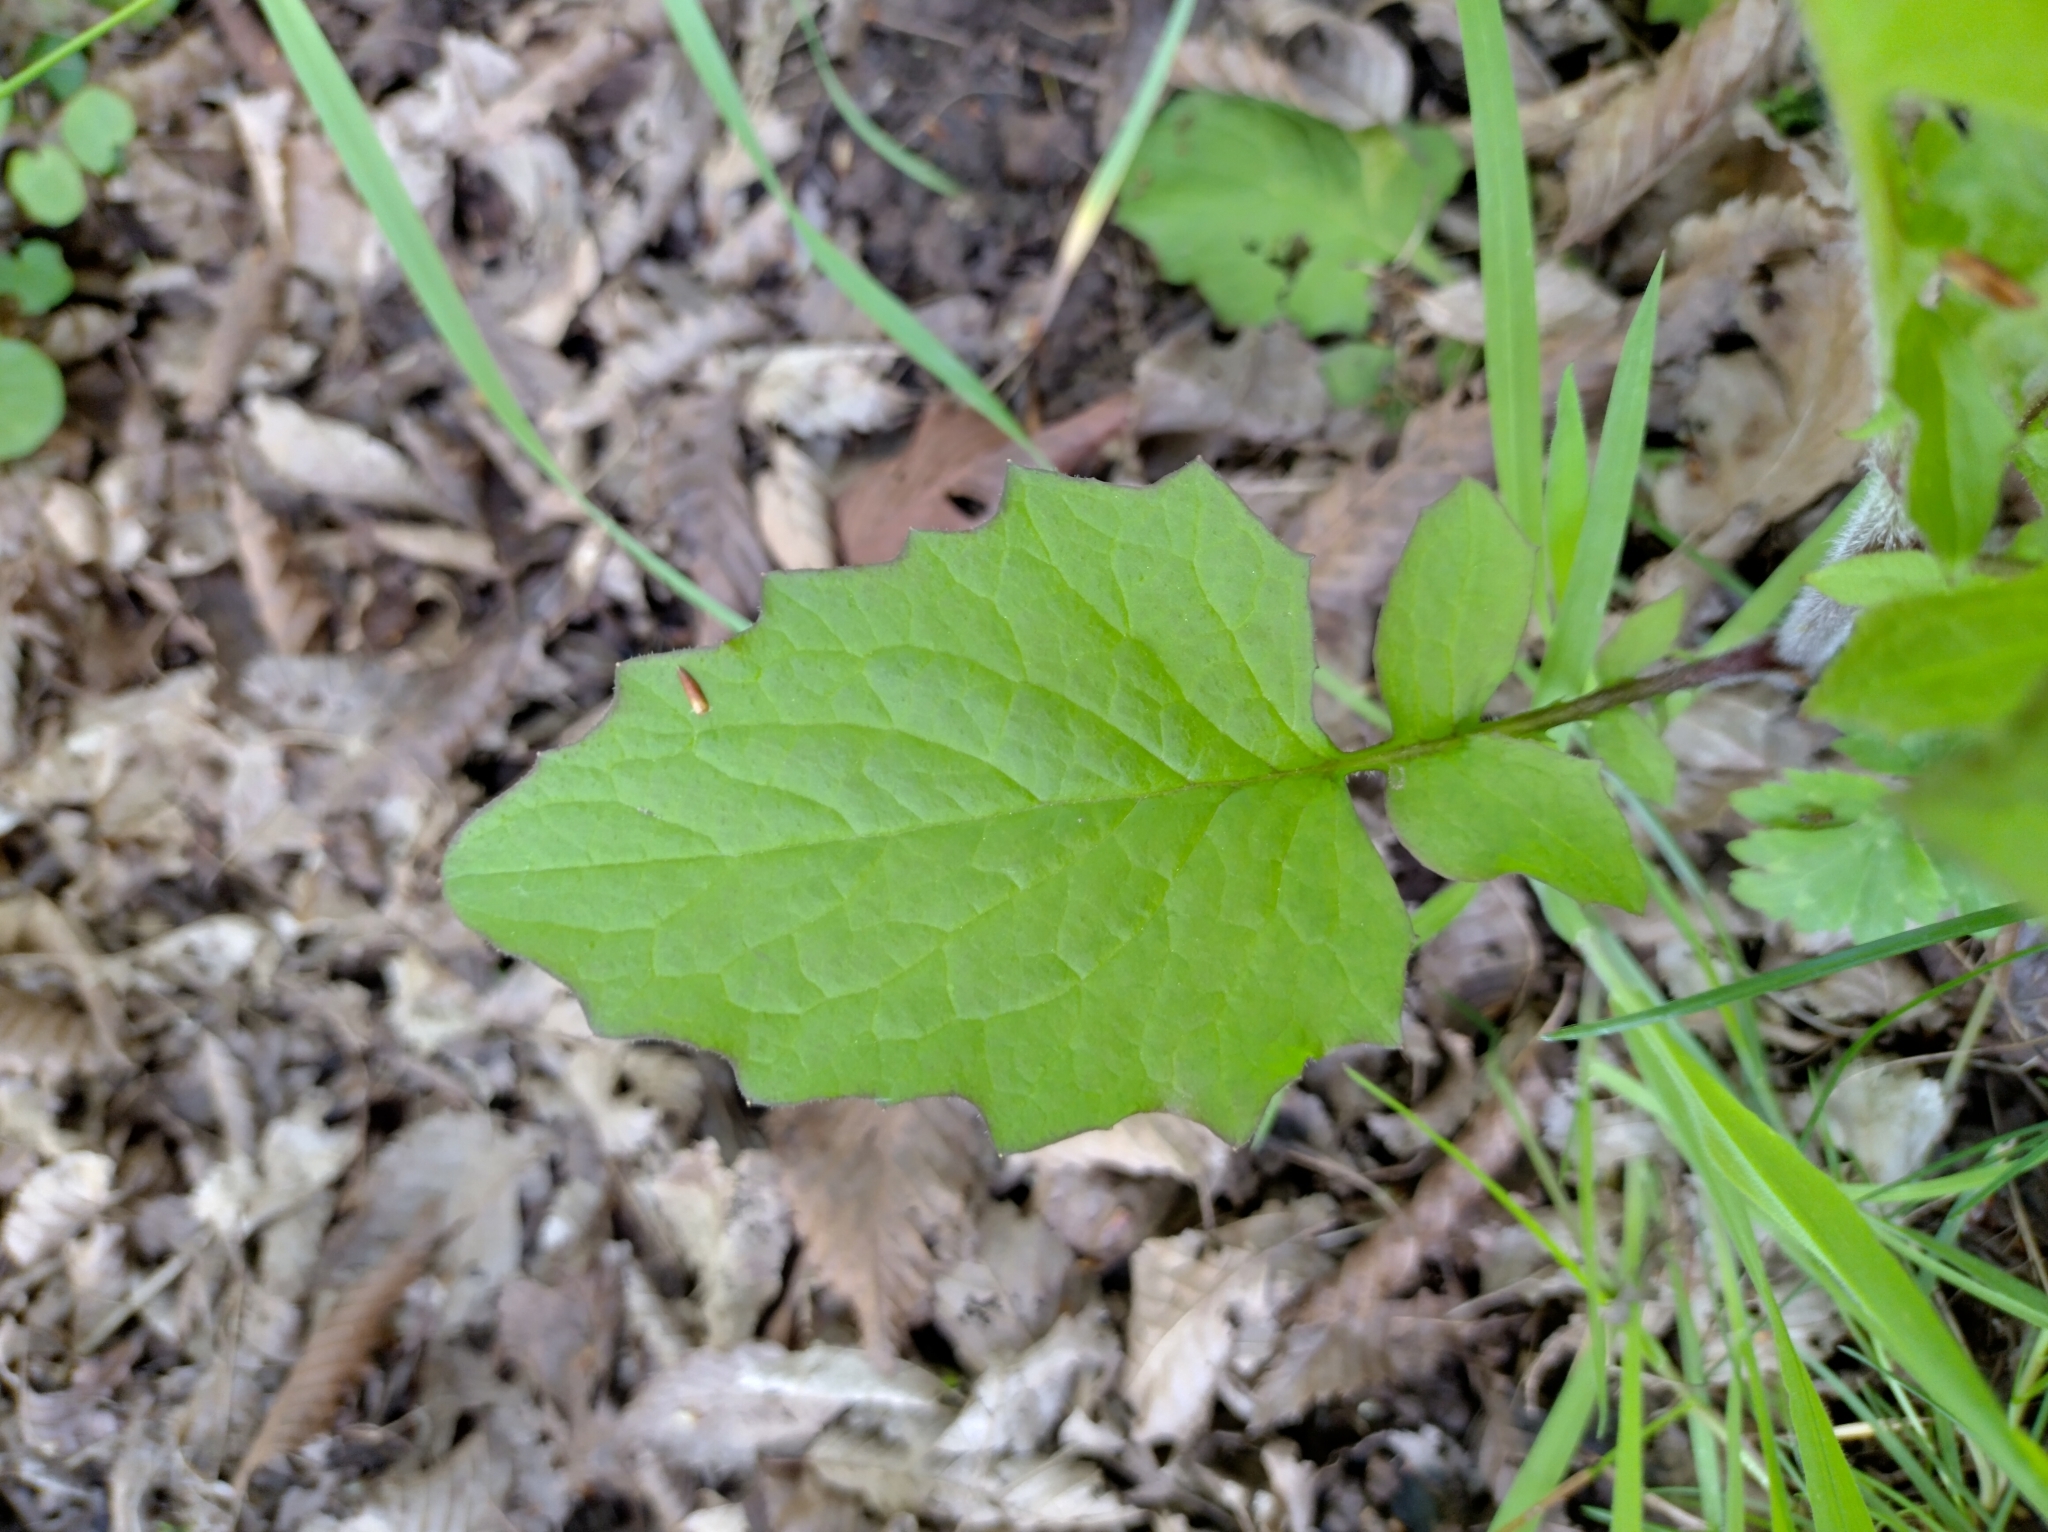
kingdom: Plantae
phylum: Tracheophyta
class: Magnoliopsida
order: Asterales
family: Asteraceae
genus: Lapsana
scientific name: Lapsana communis
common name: Nipplewort
